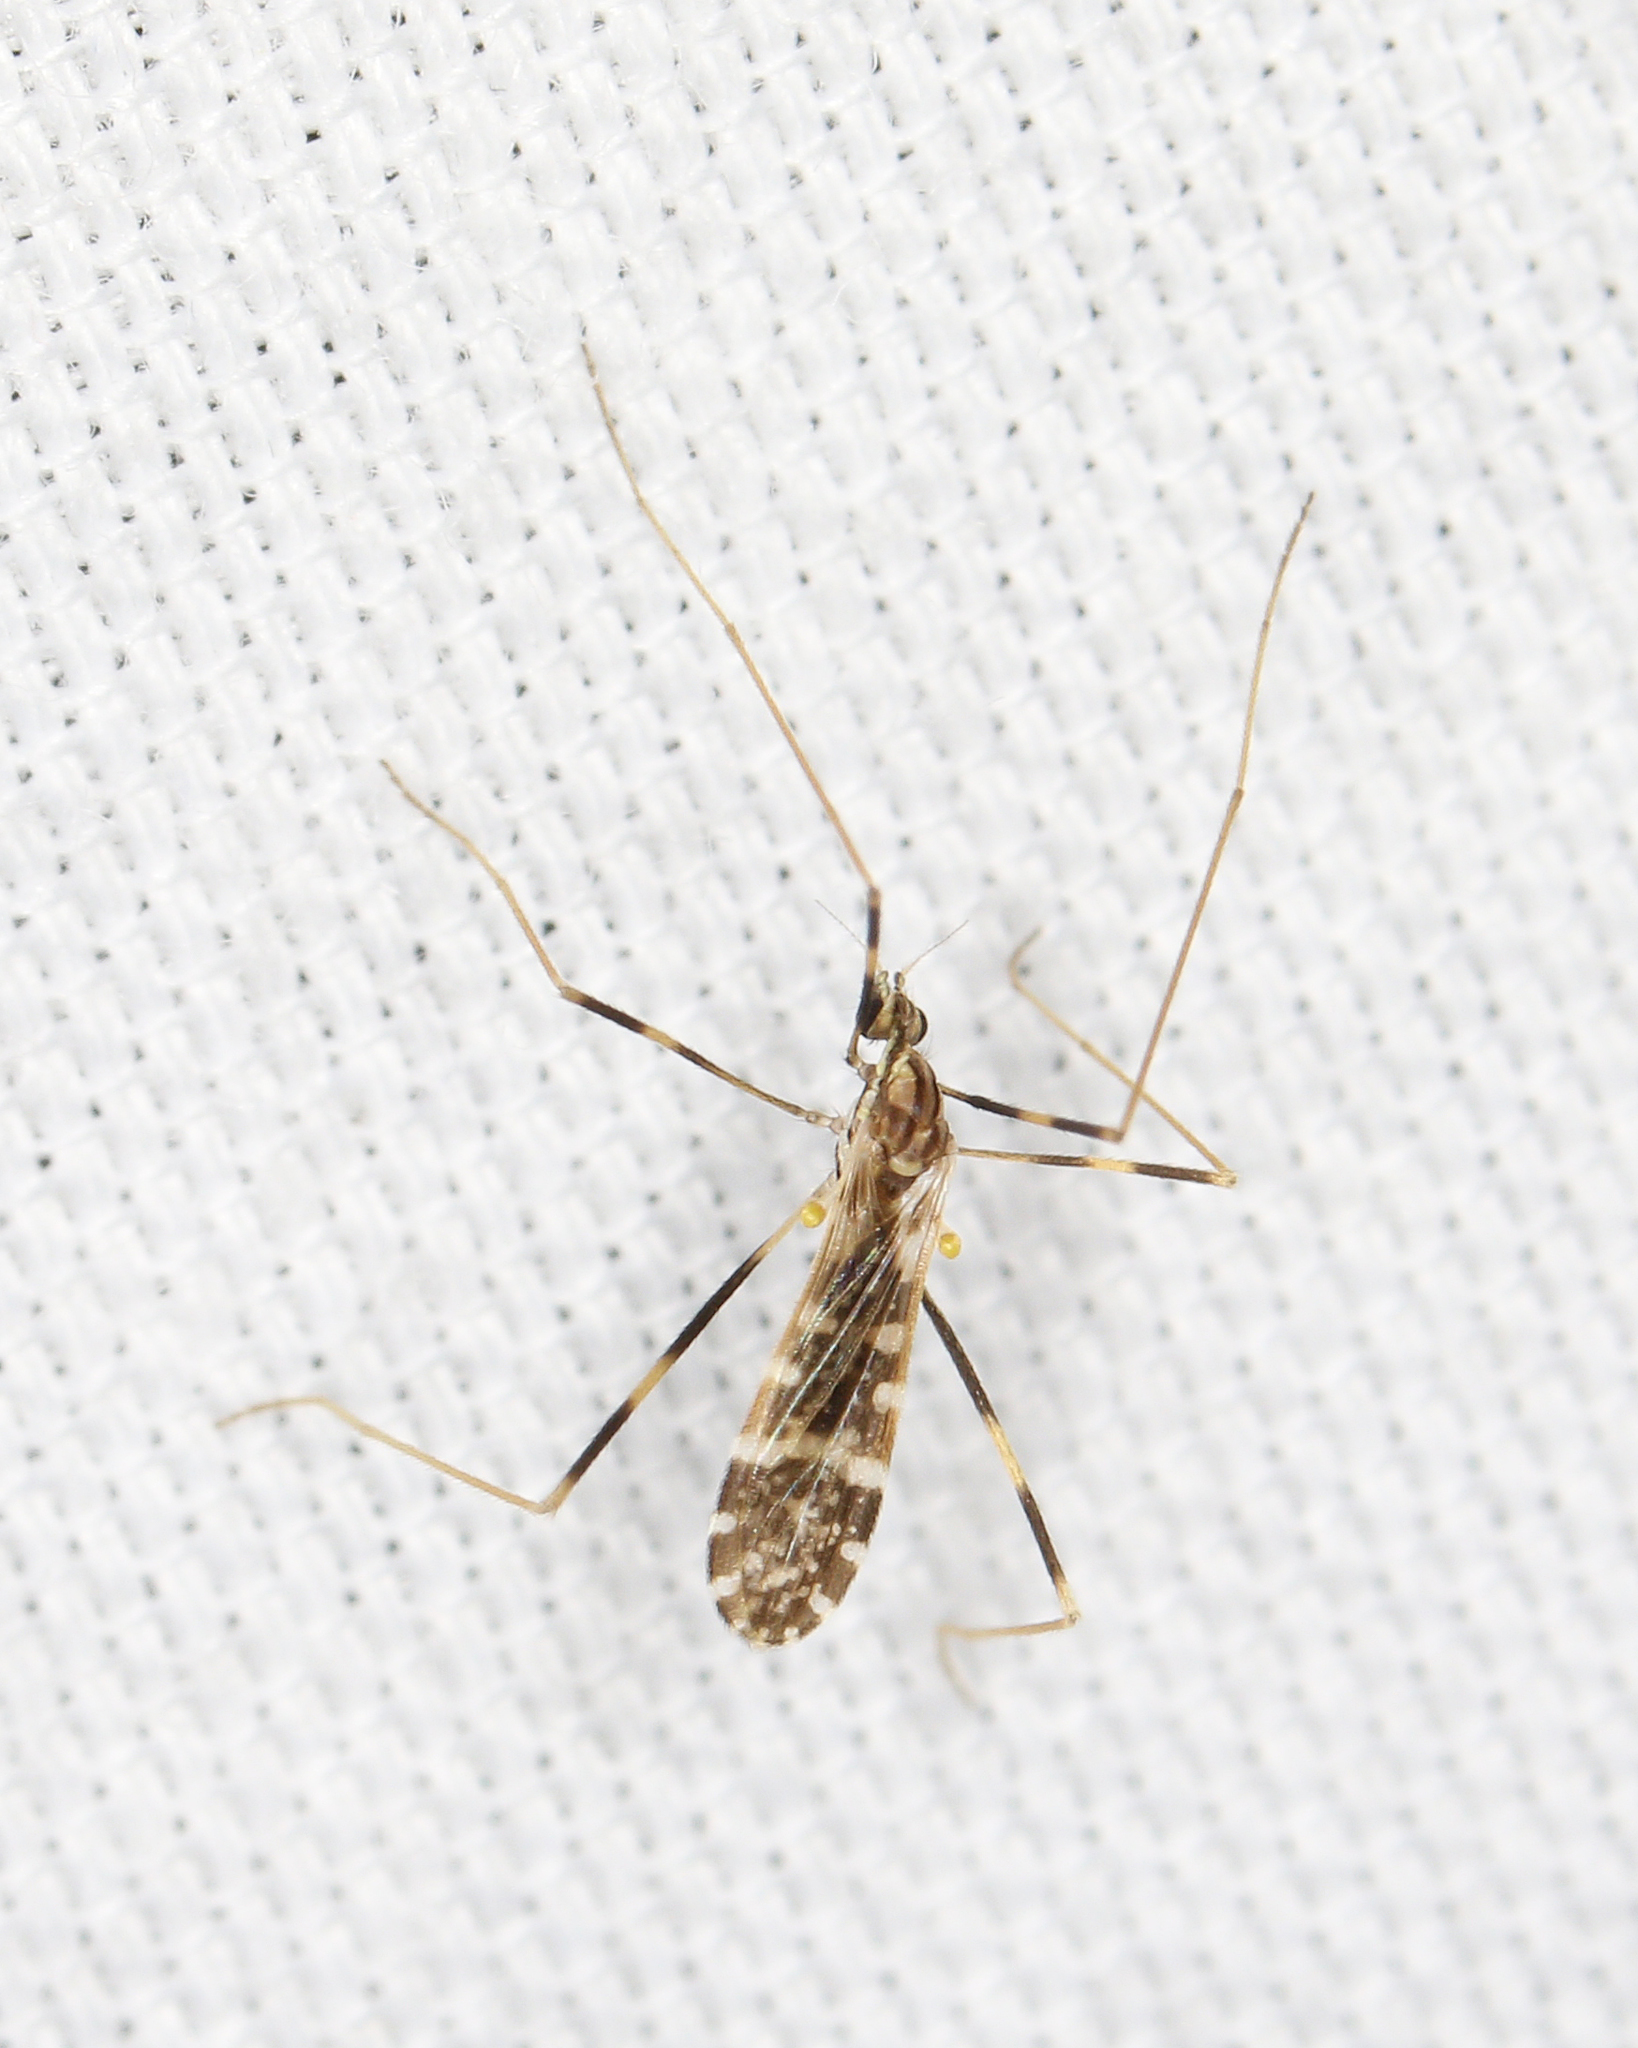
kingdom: Animalia
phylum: Arthropoda
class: Insecta
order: Diptera
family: Limoniidae
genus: Erioptera
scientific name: Erioptera caliptera
